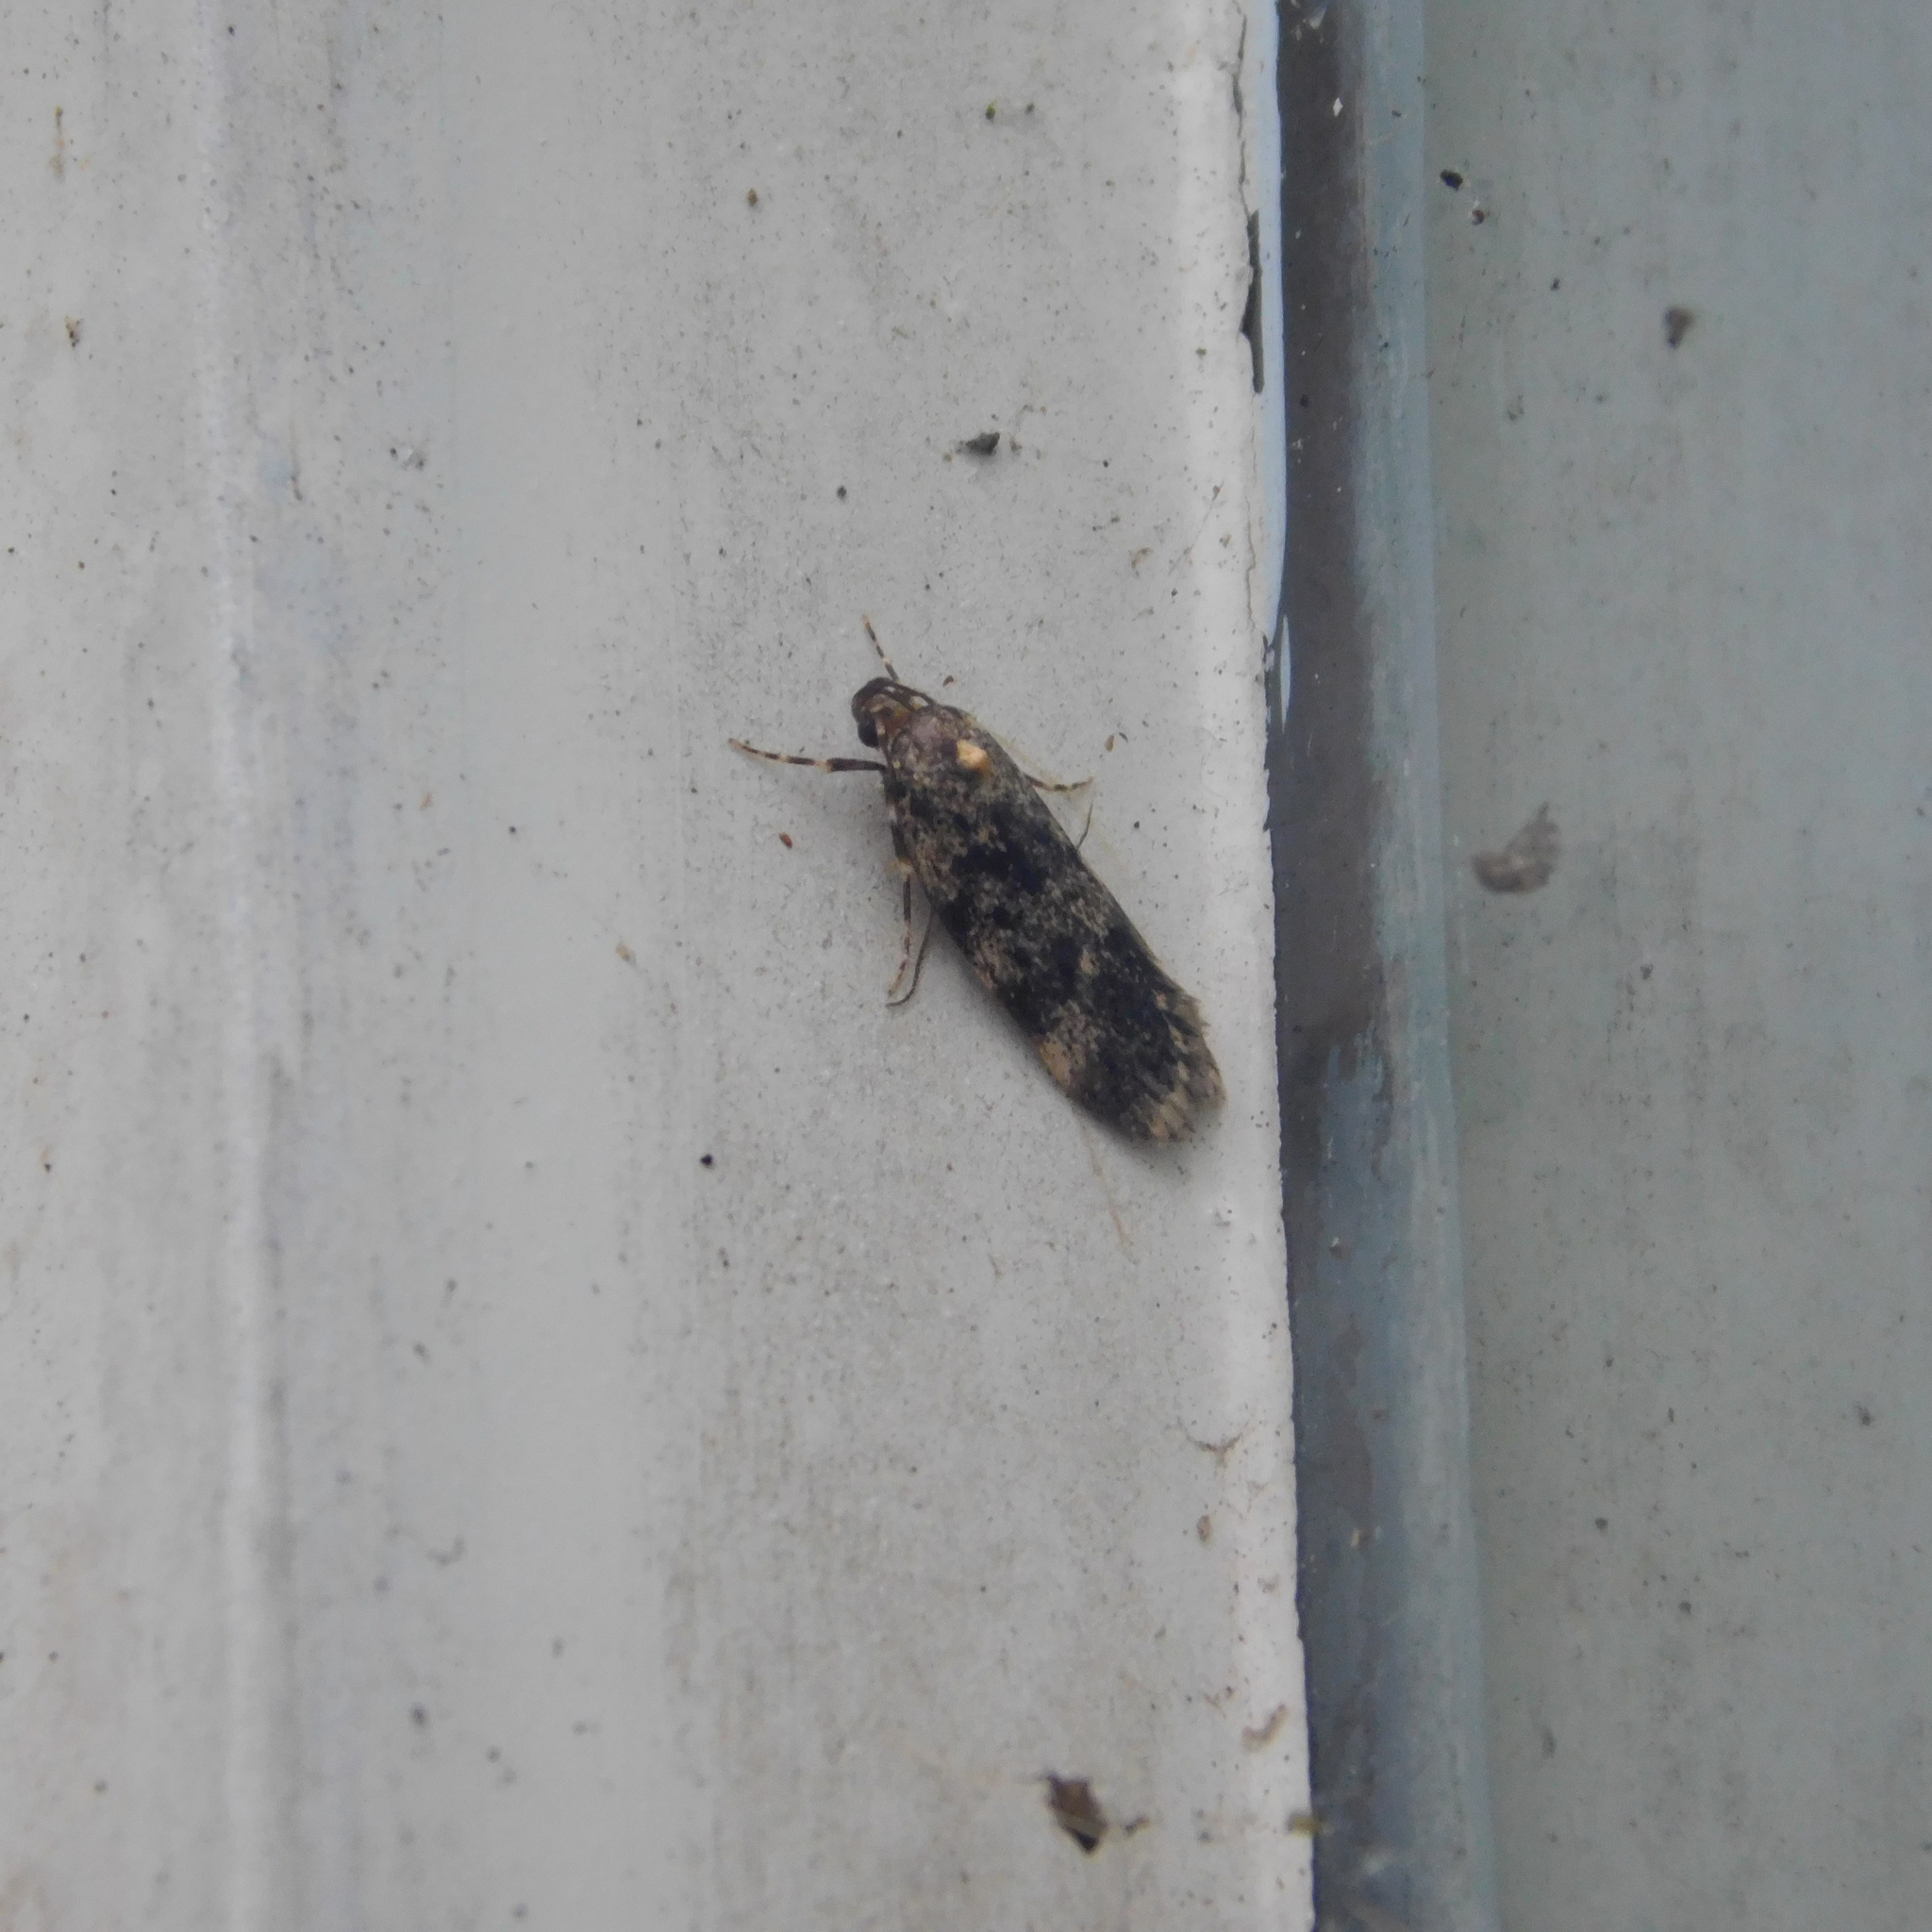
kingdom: Animalia
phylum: Arthropoda
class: Insecta
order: Lepidoptera
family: Oecophoridae
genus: Barea
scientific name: Barea codrella
